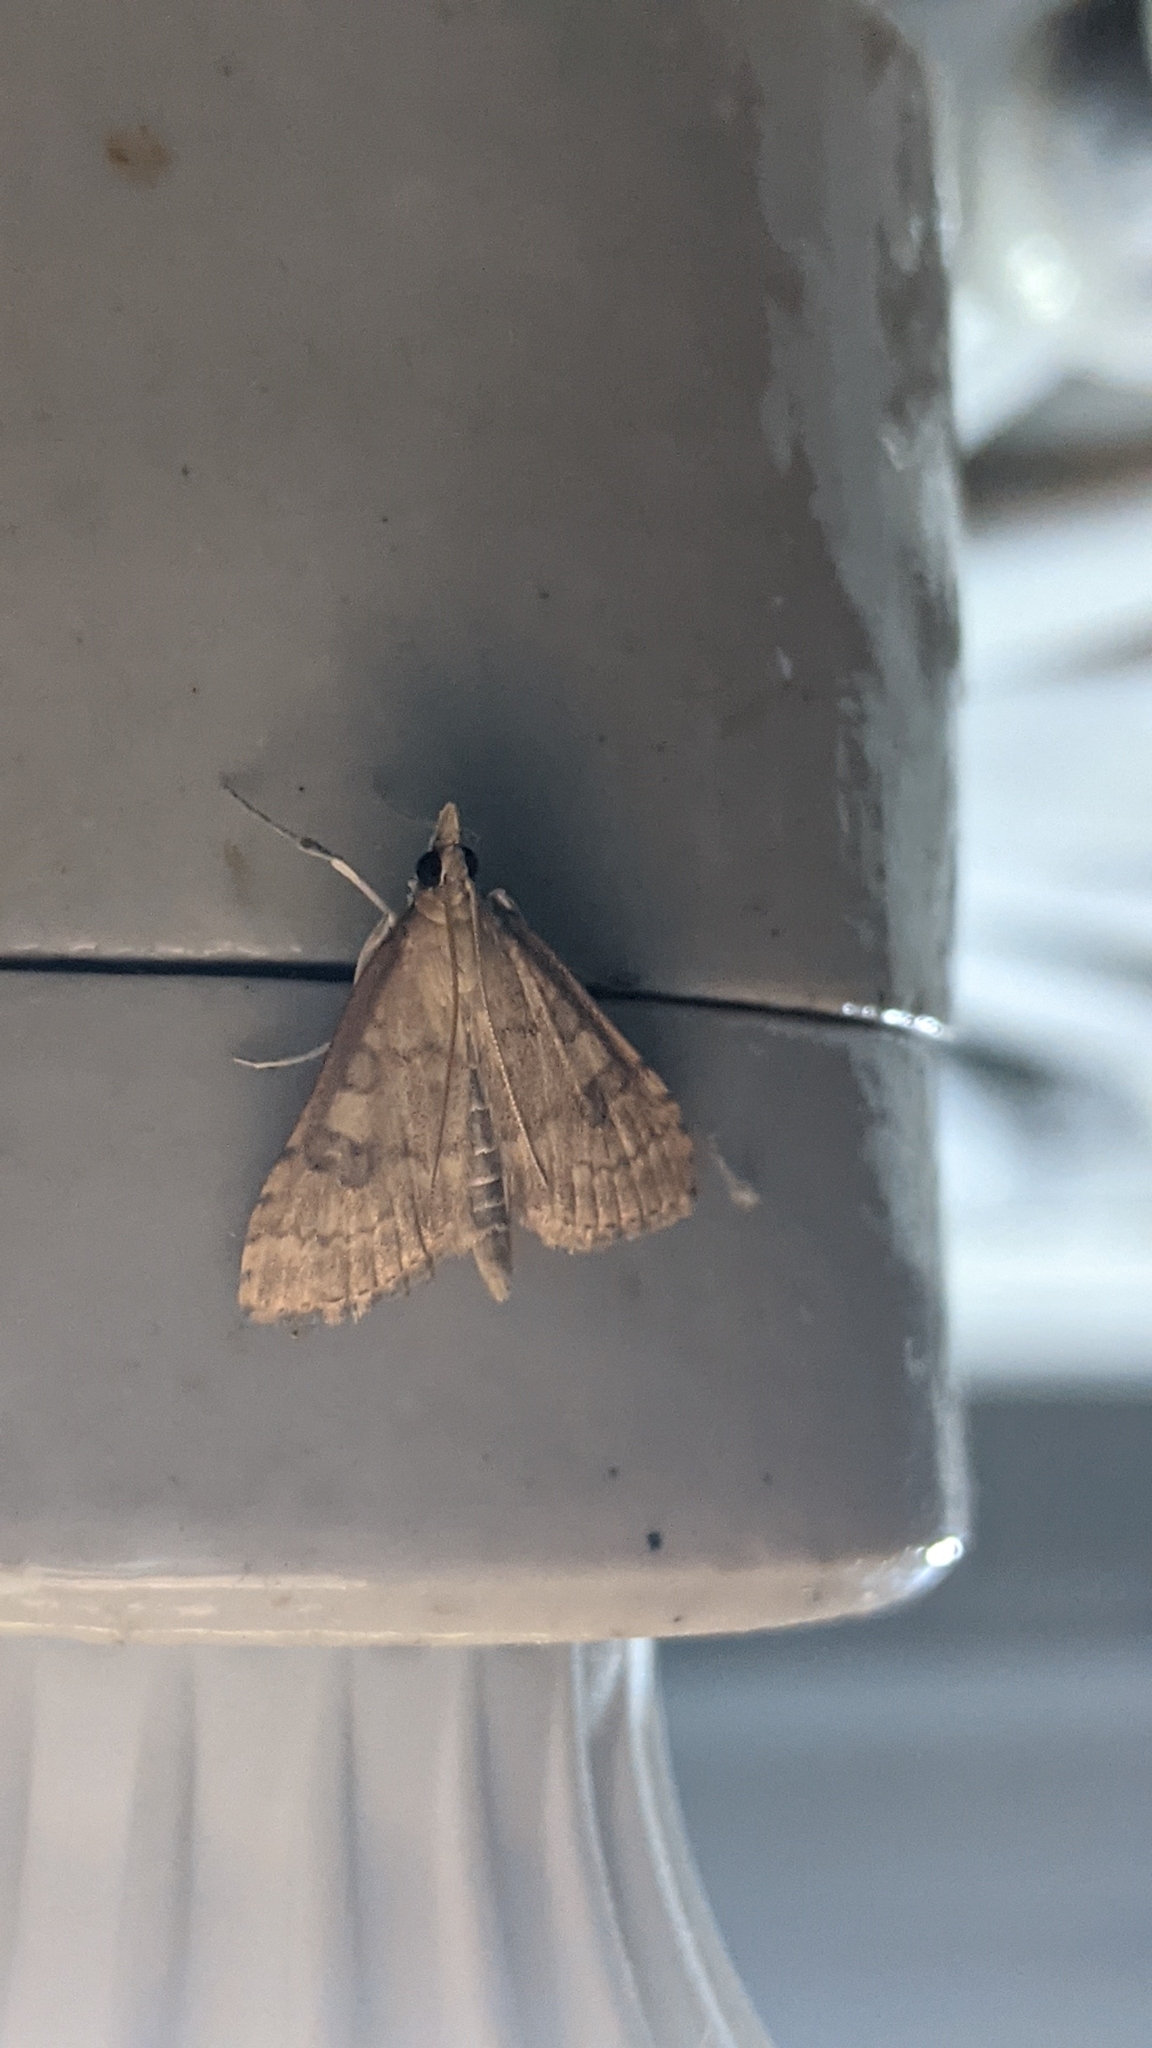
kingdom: Animalia
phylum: Arthropoda
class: Insecta
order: Lepidoptera
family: Crambidae
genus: Udea
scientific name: Udea fulvalis
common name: Fulvous pearl
